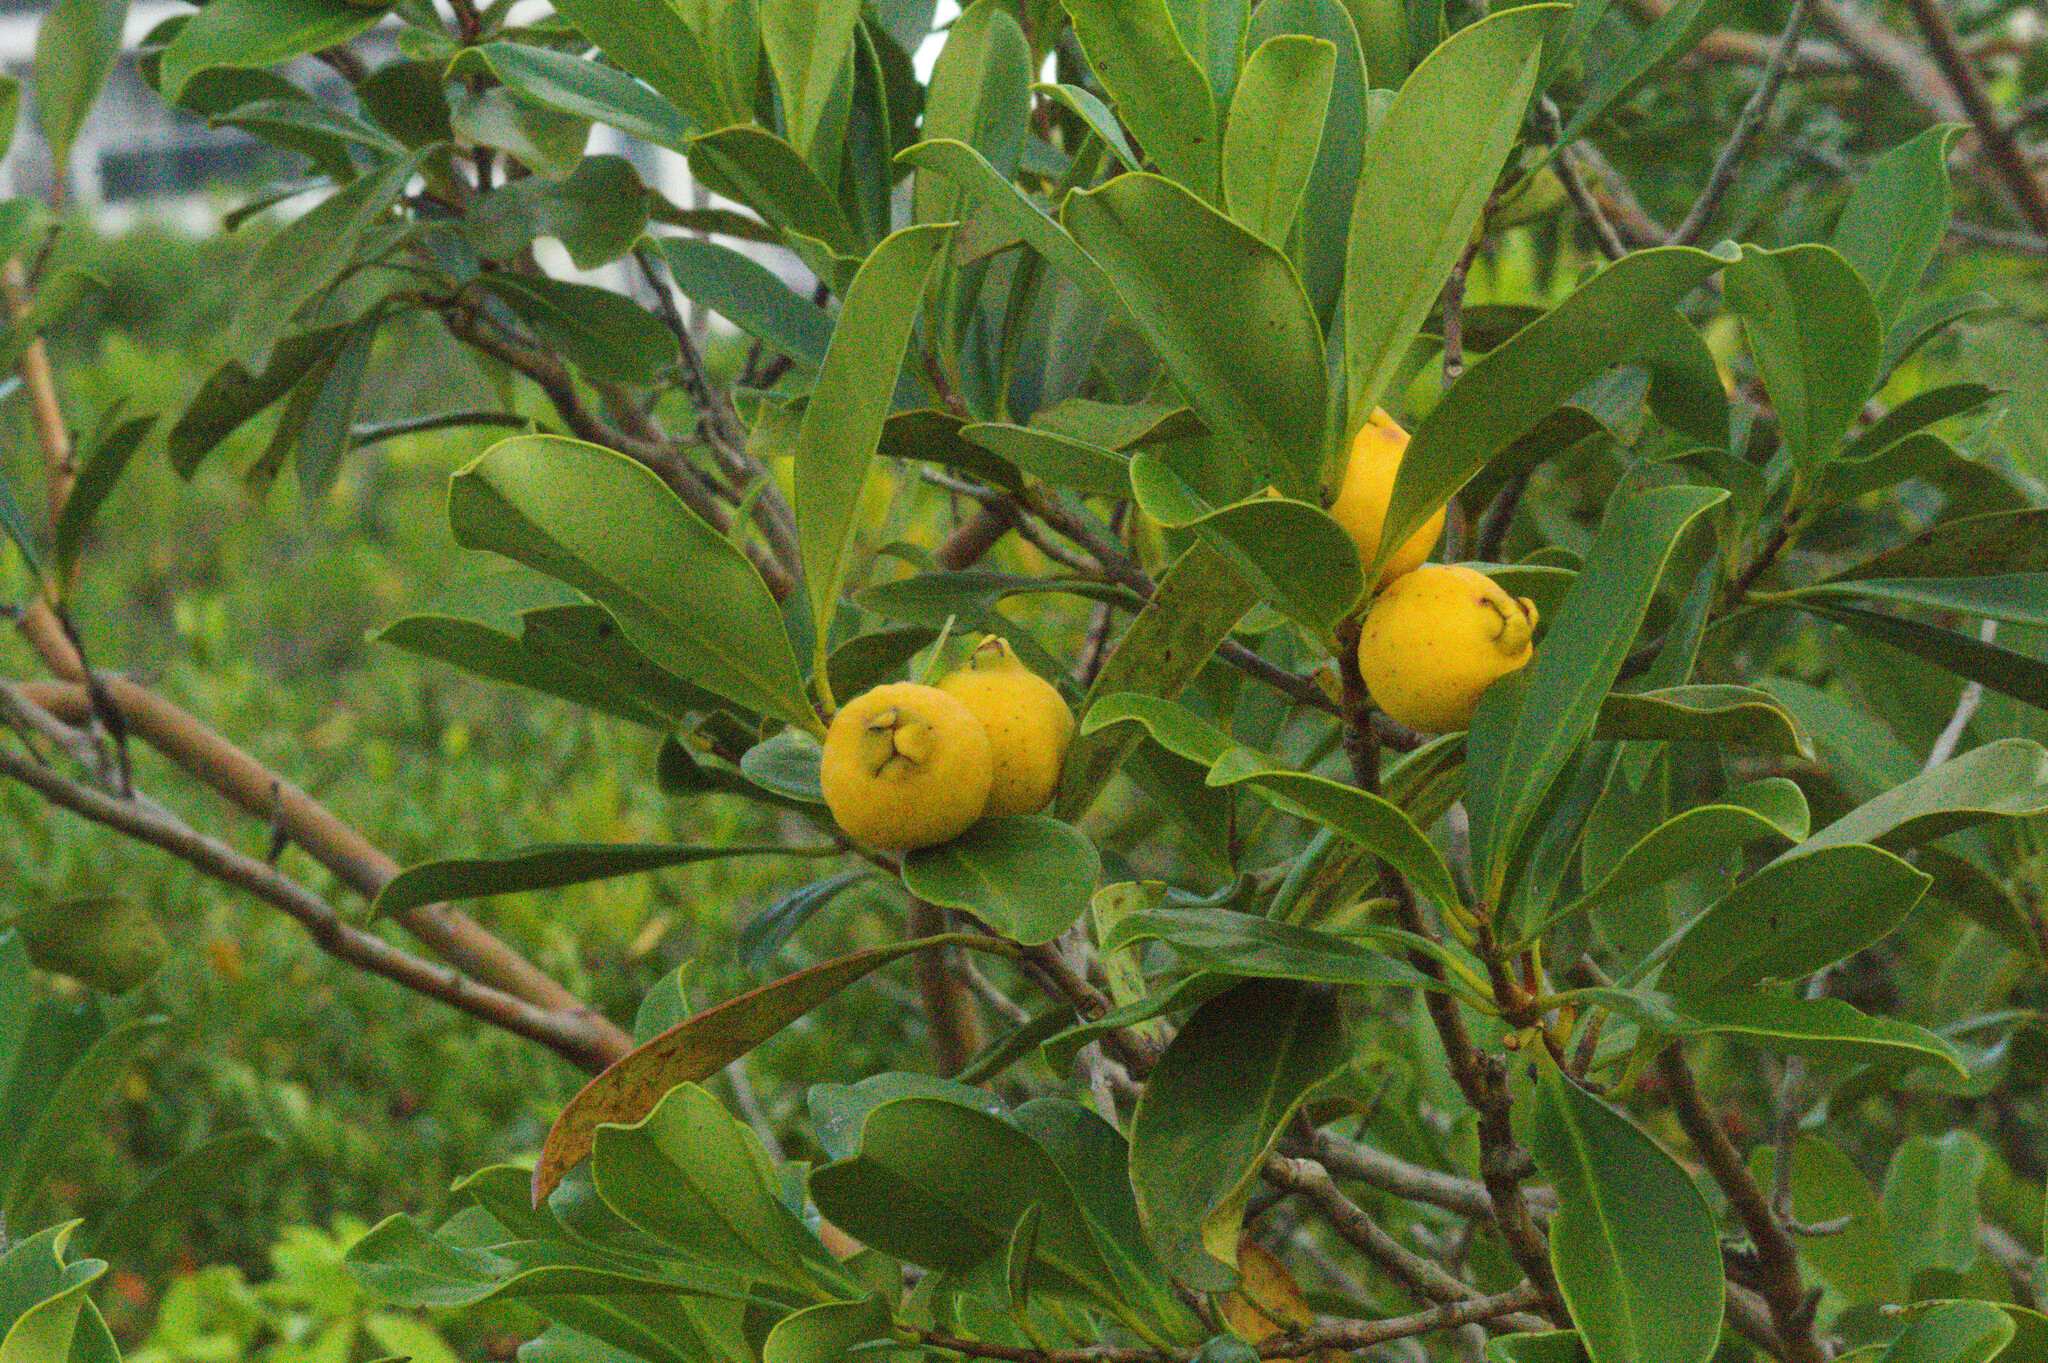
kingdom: Plantae
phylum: Tracheophyta
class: Magnoliopsida
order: Myrtales
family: Myrtaceae
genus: Psidium
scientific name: Psidium cattleianum
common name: Strawberry guava
